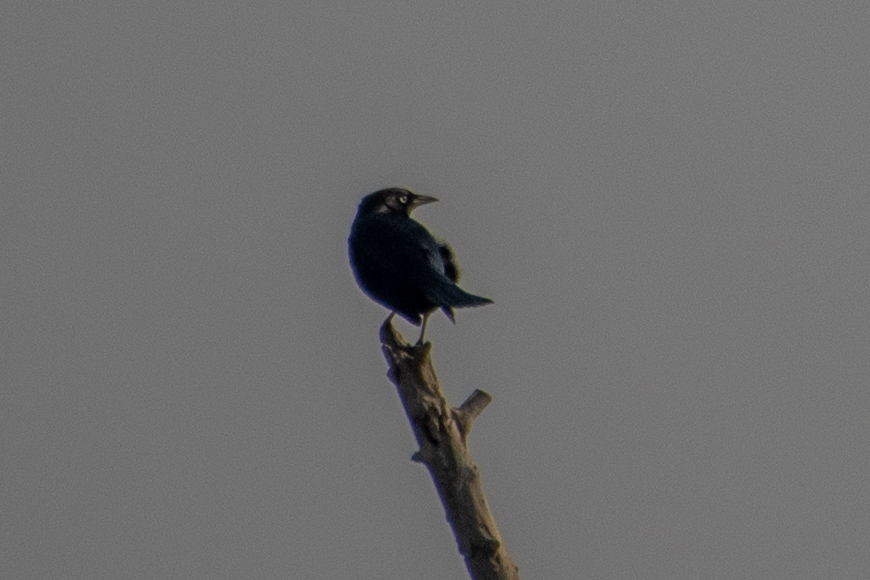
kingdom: Animalia
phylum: Chordata
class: Aves
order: Passeriformes
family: Icteridae
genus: Euphagus
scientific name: Euphagus cyanocephalus
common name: Brewer's blackbird
